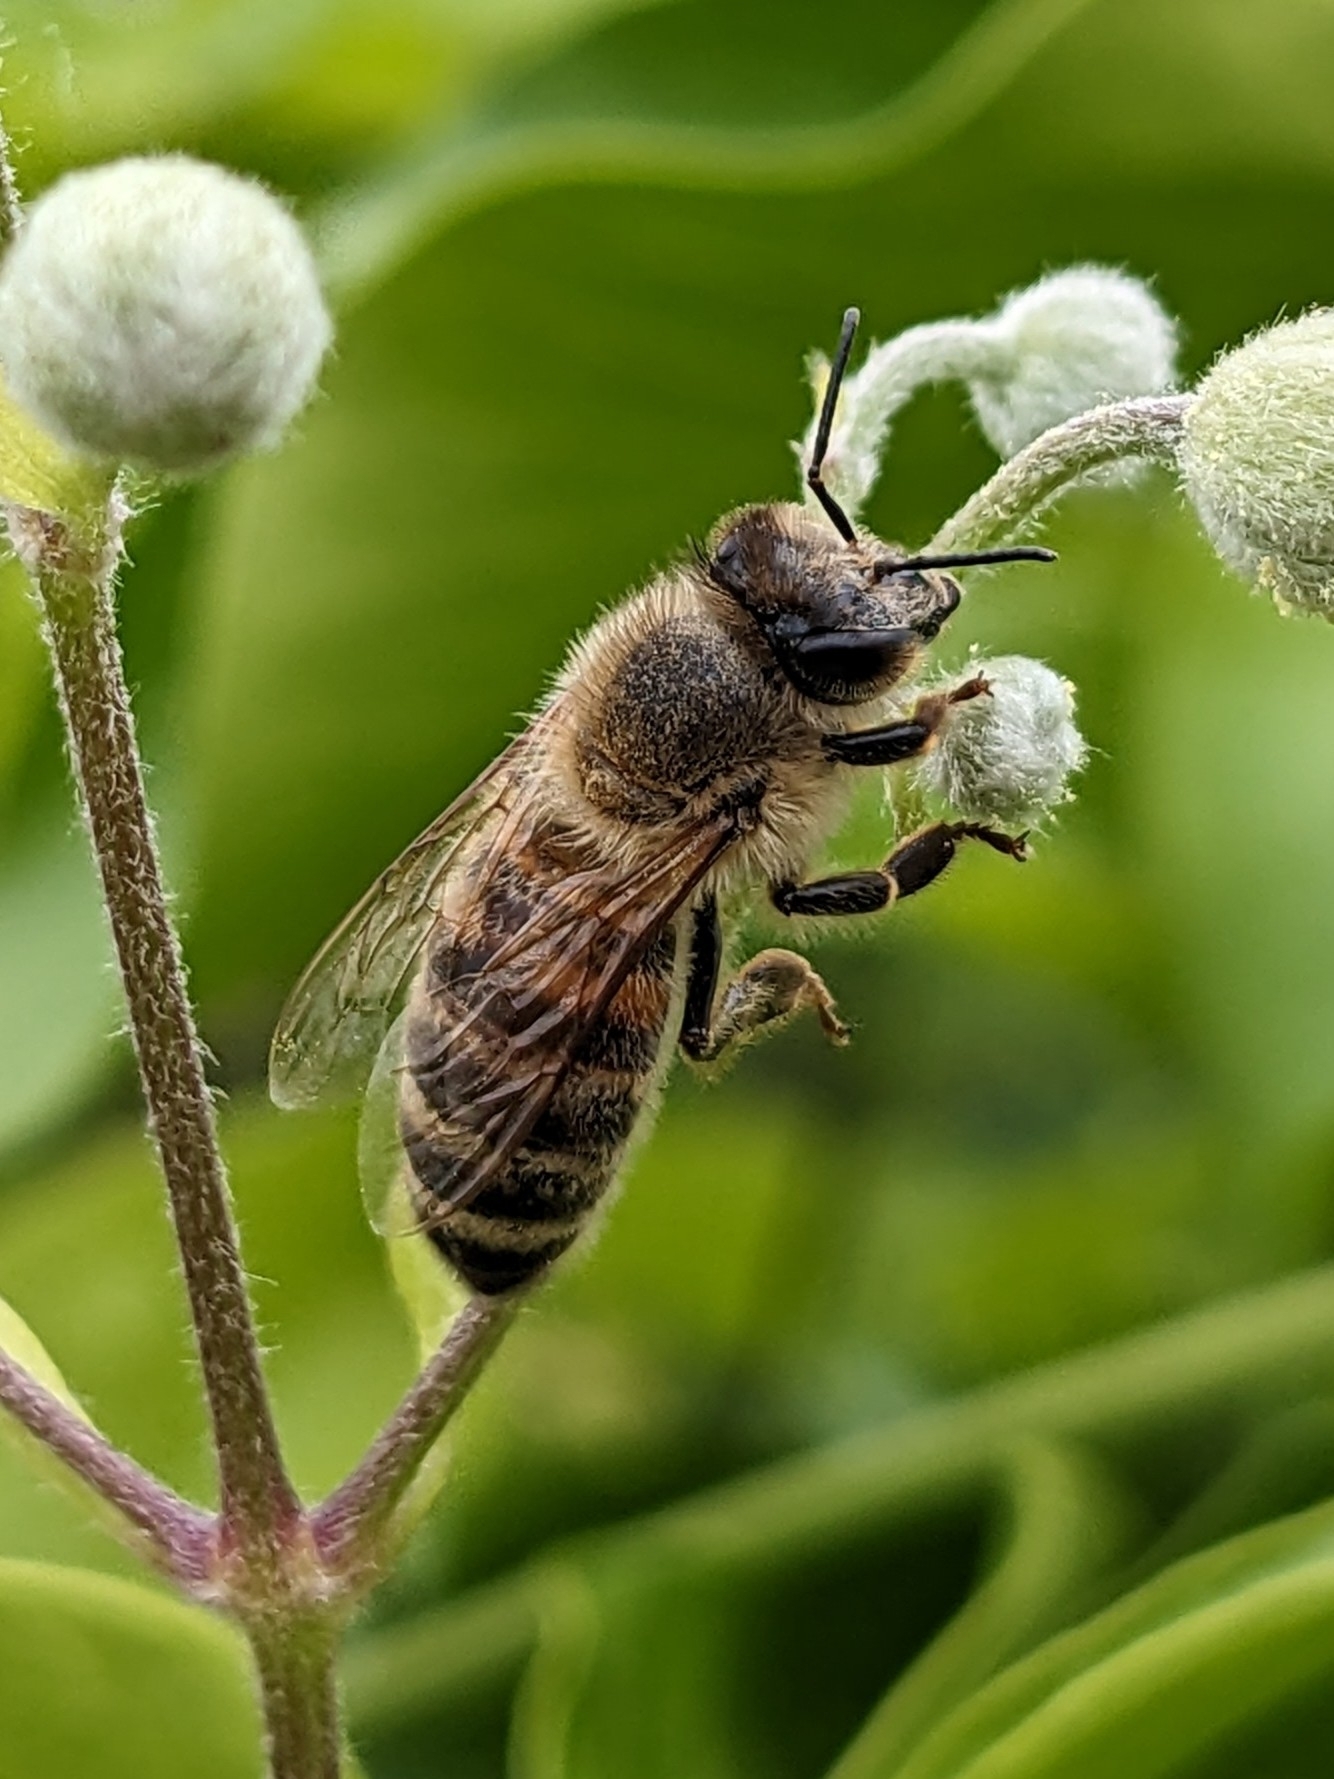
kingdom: Animalia
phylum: Arthropoda
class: Insecta
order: Hymenoptera
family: Apidae
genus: Apis
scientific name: Apis mellifera
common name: Honey bee
